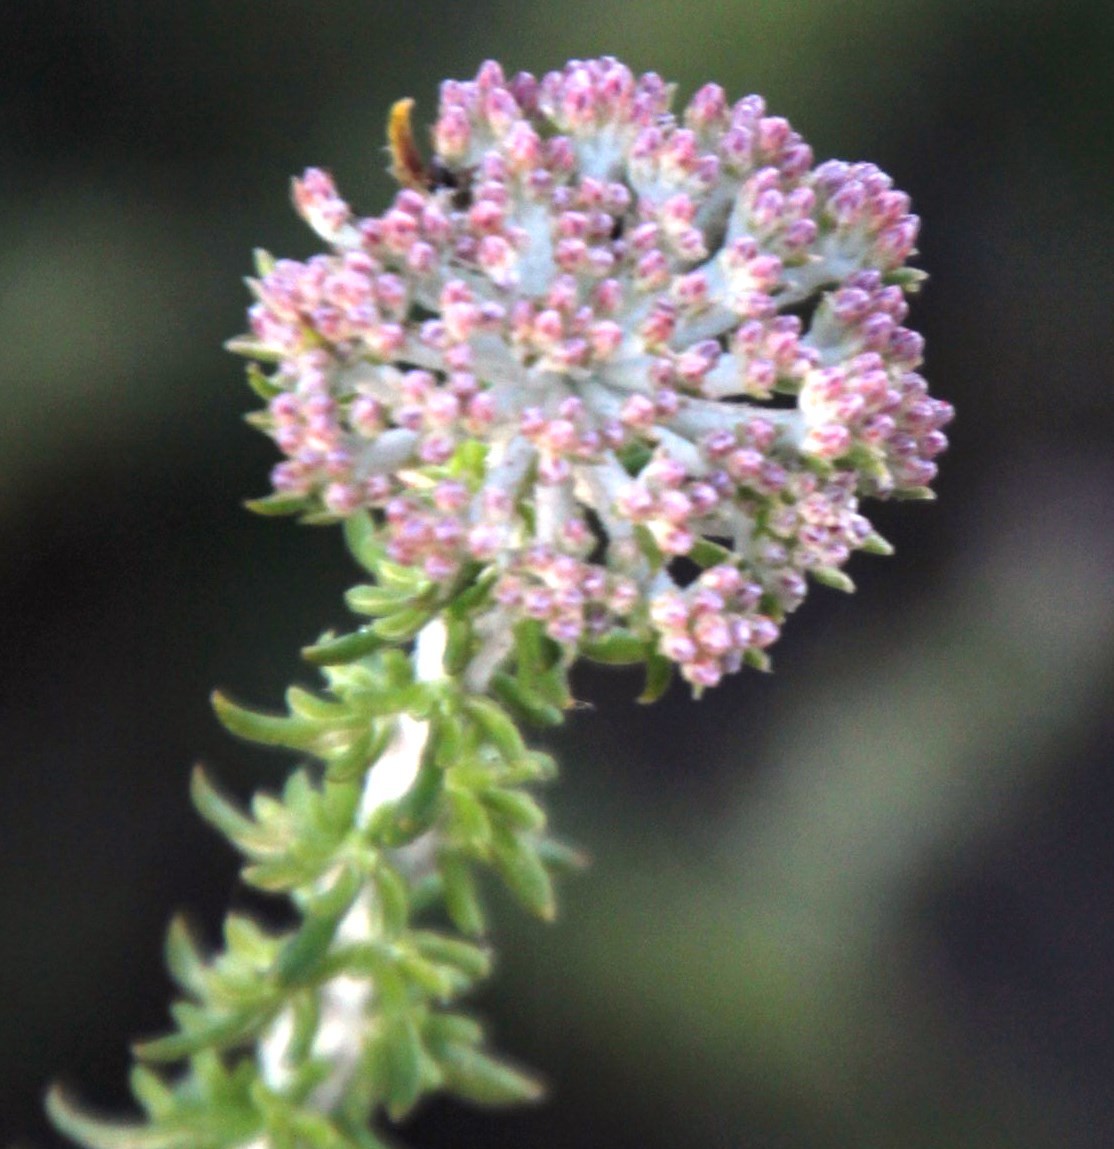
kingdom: Plantae
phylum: Tracheophyta
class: Magnoliopsida
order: Asterales
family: Asteraceae
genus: Metalasia
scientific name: Metalasia muricata
